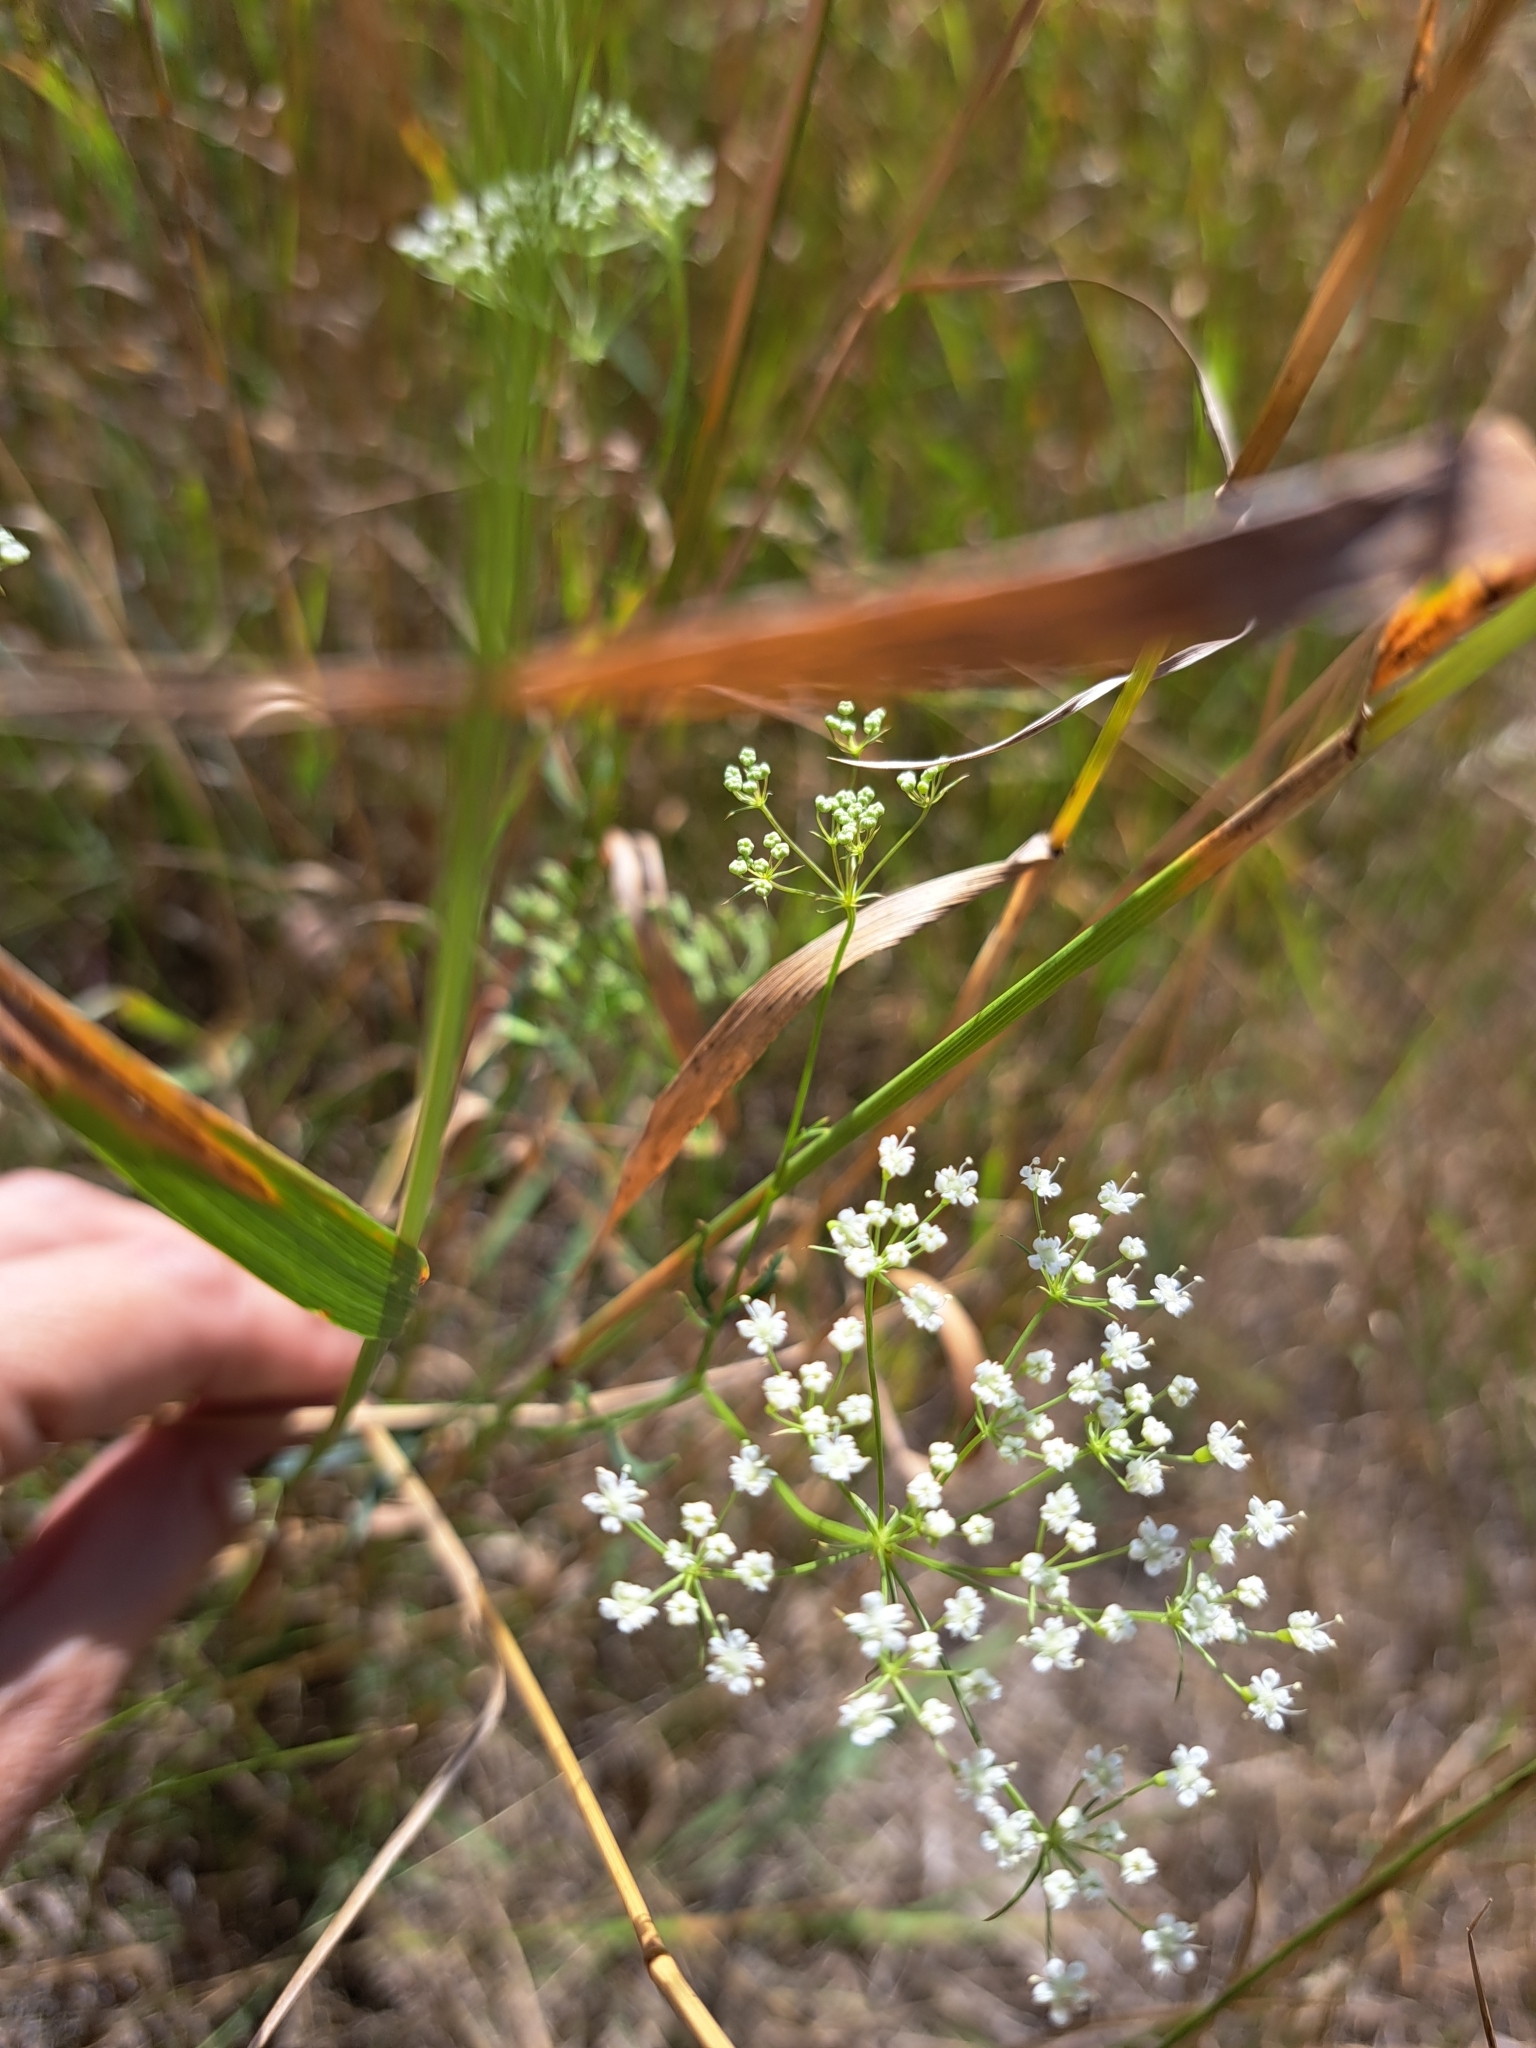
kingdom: Plantae
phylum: Tracheophyta
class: Magnoliopsida
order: Apiales
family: Apiaceae
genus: Falcaria
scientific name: Falcaria vulgaris
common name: Longleaf
